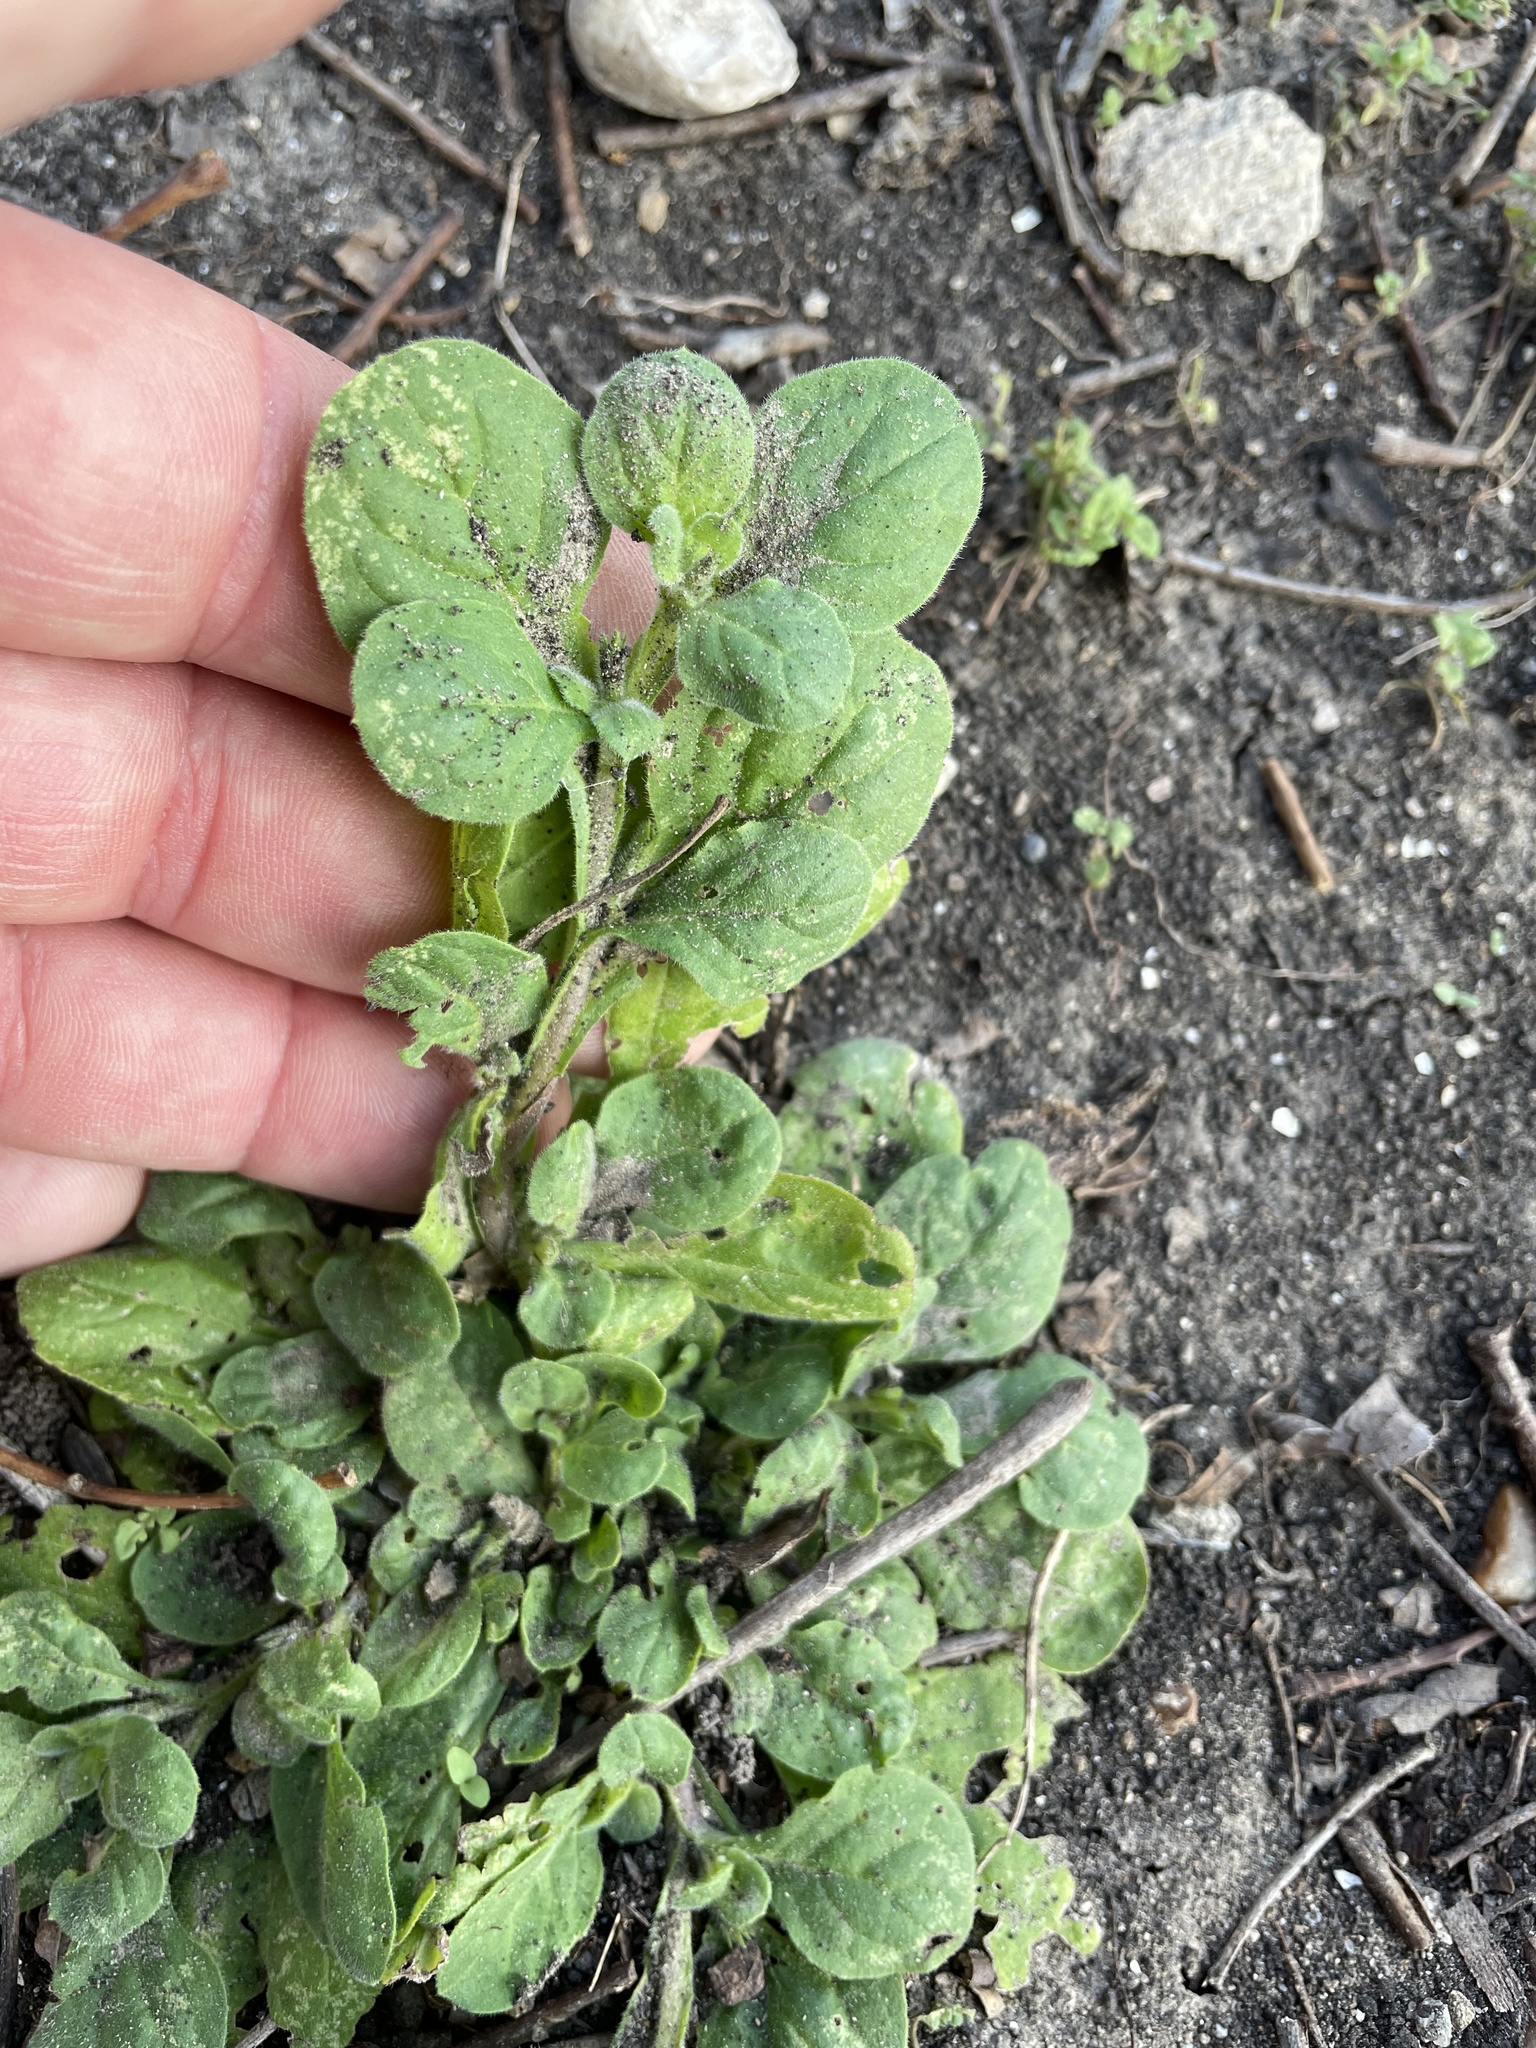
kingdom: Plantae
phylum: Tracheophyta
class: Magnoliopsida
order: Boraginales
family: Namaceae
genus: Nama
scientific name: Nama jamaicensis
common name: Jamaicanweed
